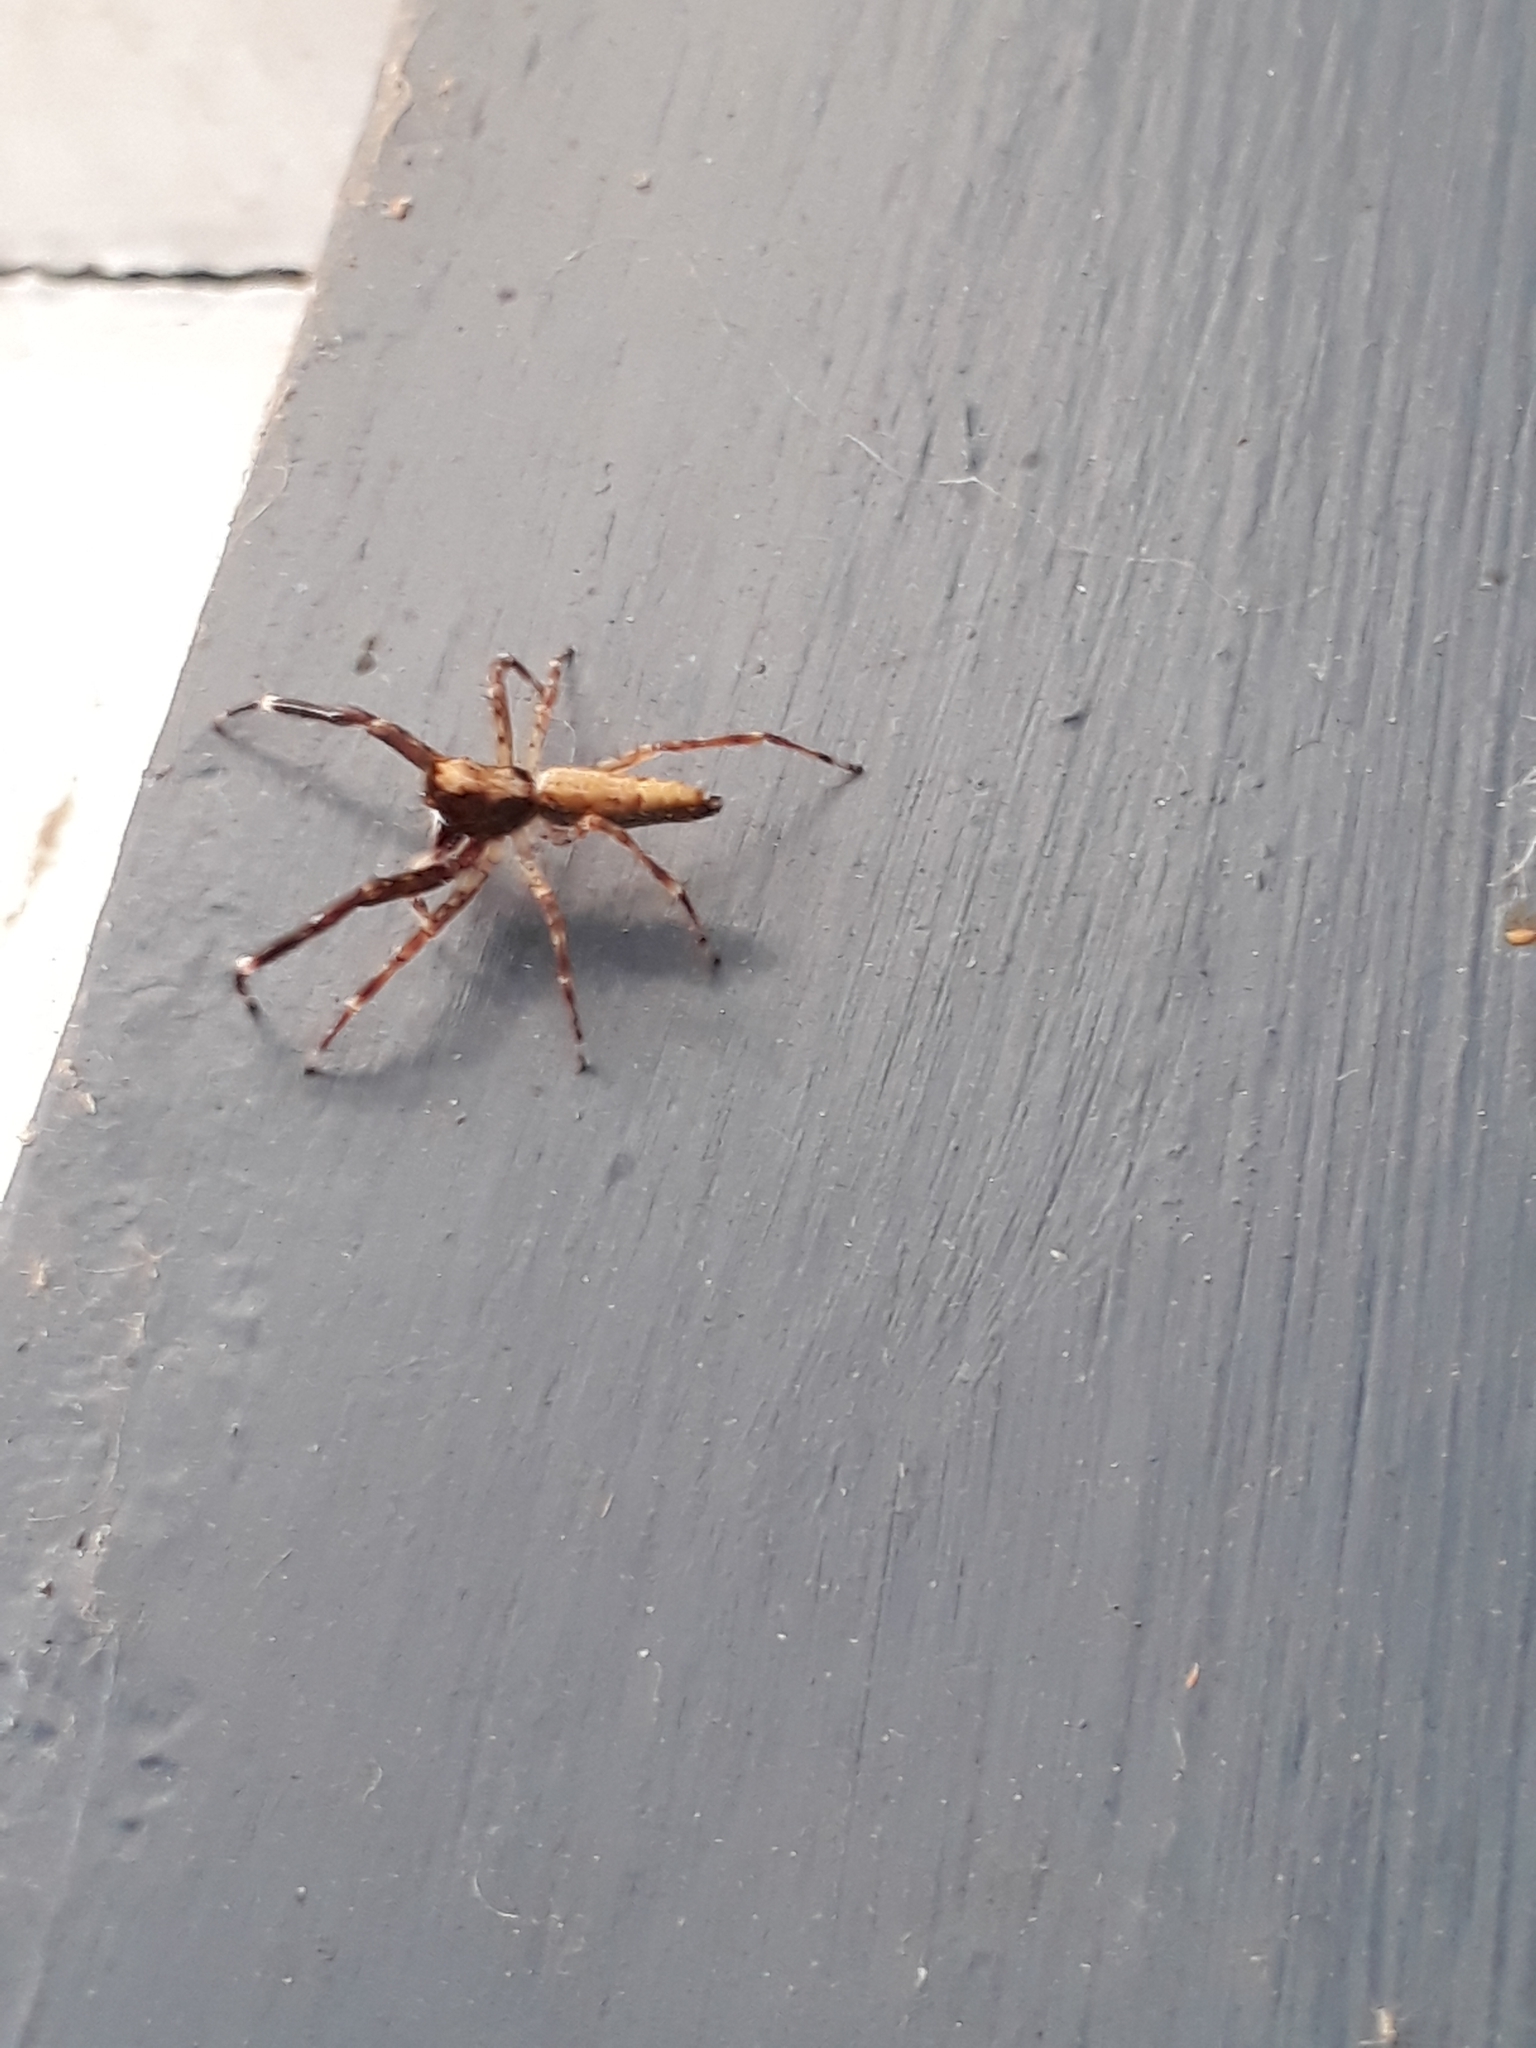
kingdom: Animalia
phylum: Arthropoda
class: Arachnida
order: Araneae
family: Salticidae
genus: Helpis
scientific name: Helpis minitabunda
